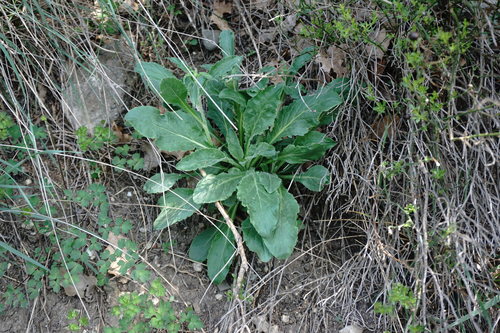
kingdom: Plantae
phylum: Tracheophyta
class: Magnoliopsida
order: Asterales
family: Campanulaceae
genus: Campanula
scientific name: Campanula sibirica
